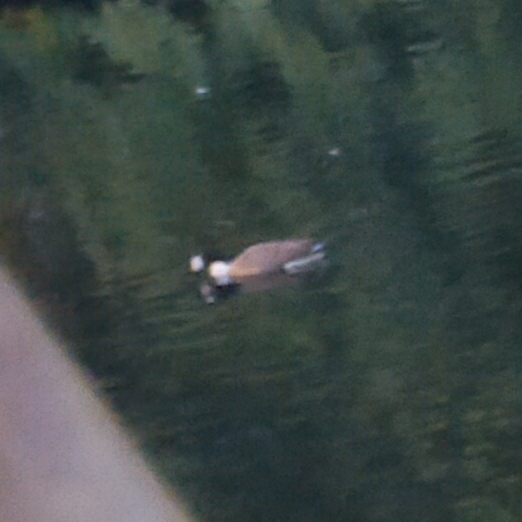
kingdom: Animalia
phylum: Chordata
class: Aves
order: Anseriformes
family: Anatidae
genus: Branta
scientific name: Branta canadensis
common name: Canada goose
